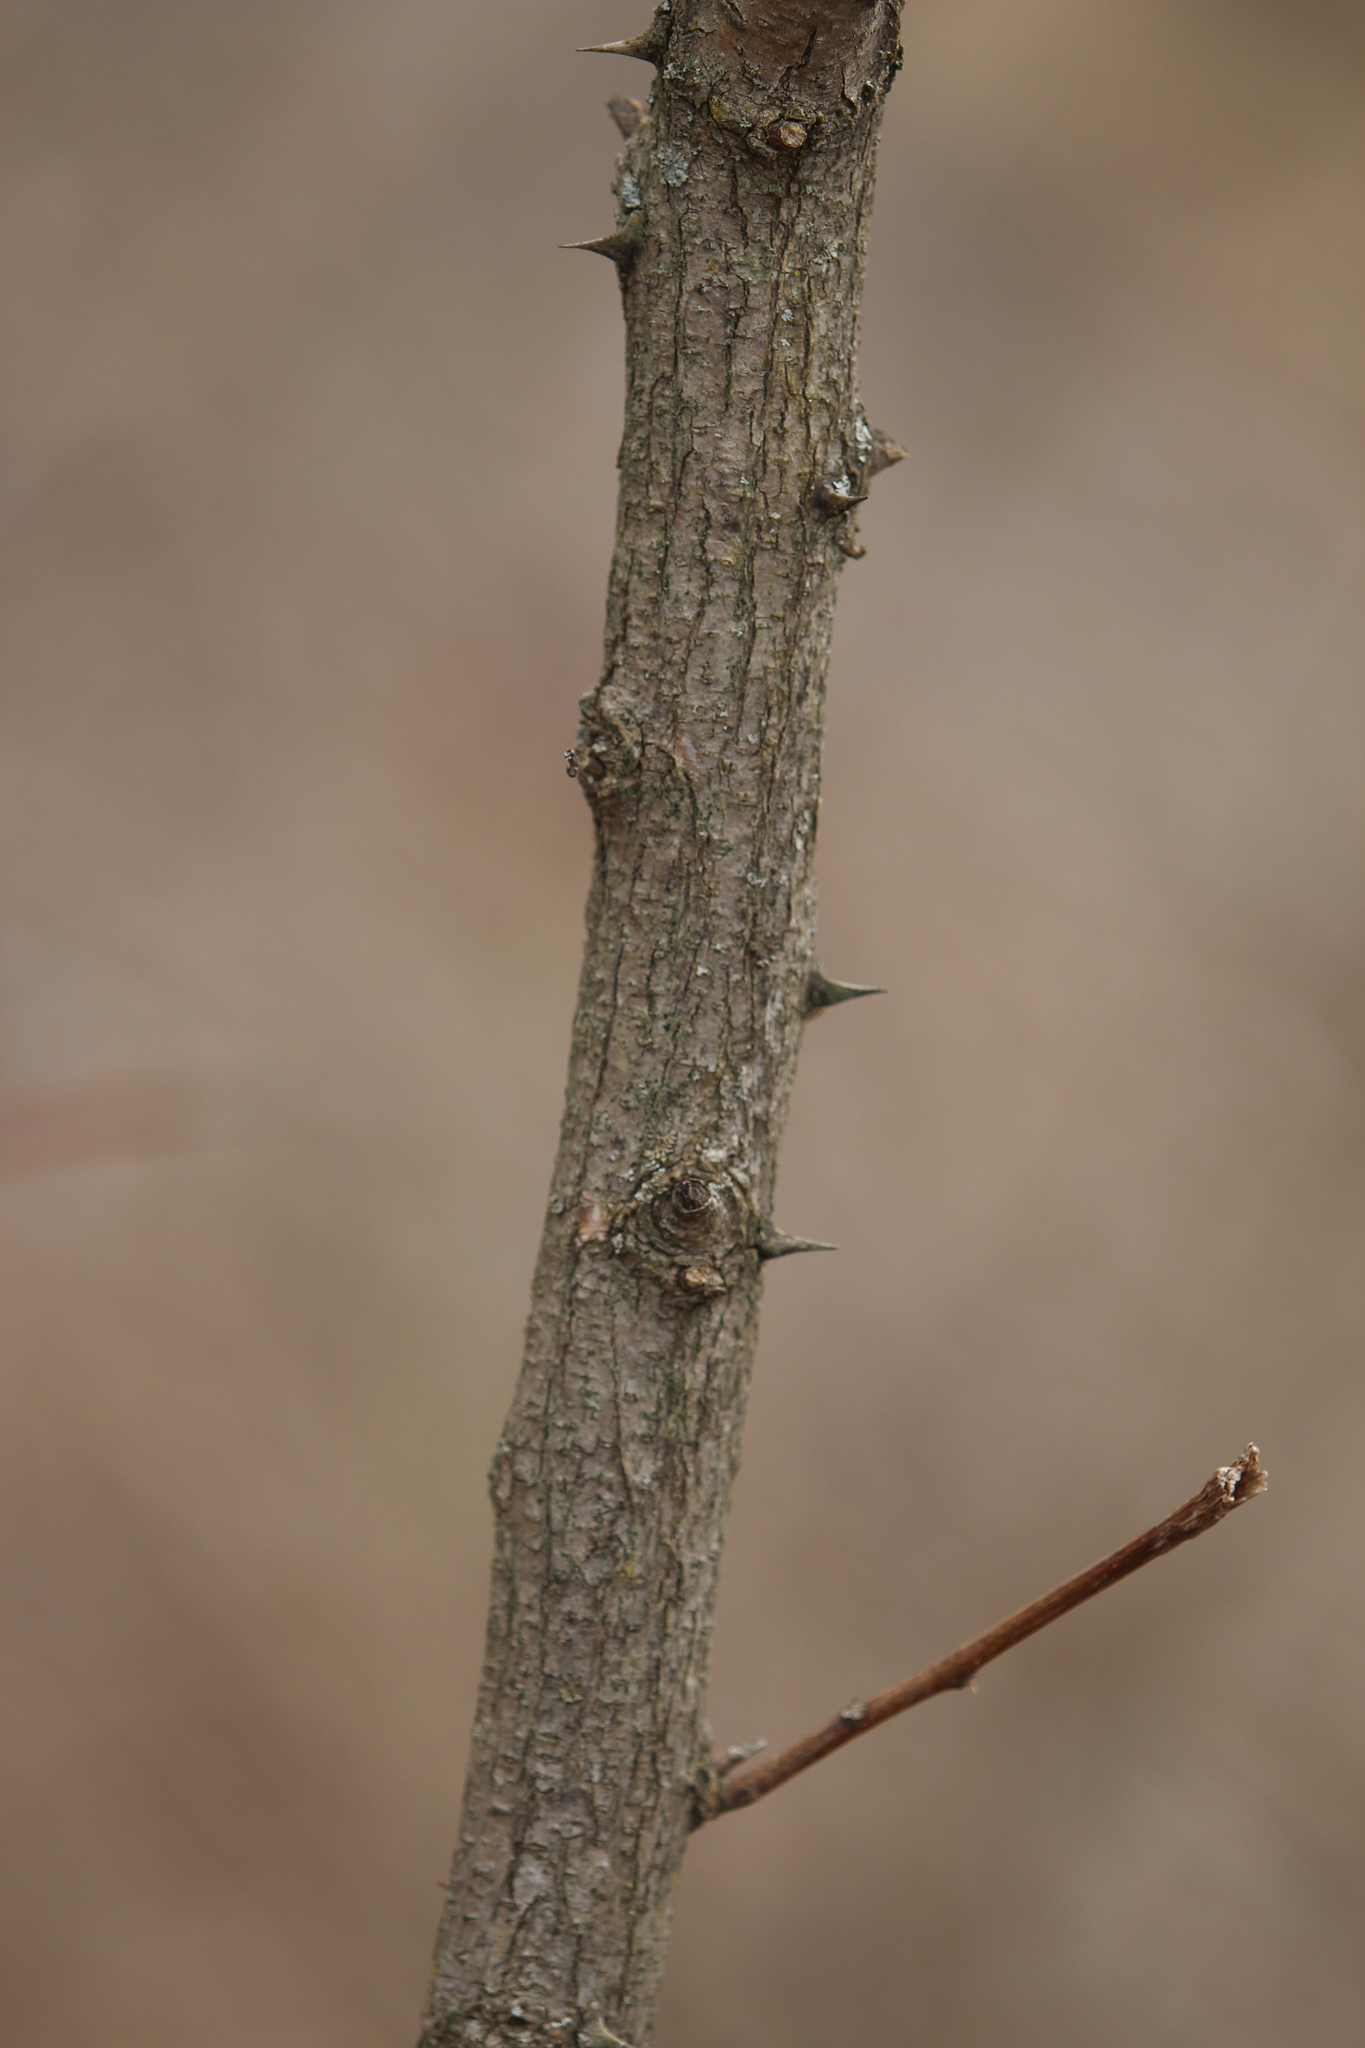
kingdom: Plantae
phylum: Tracheophyta
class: Magnoliopsida
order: Fabales
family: Fabaceae
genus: Robinia
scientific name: Robinia pseudoacacia
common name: Black locust
